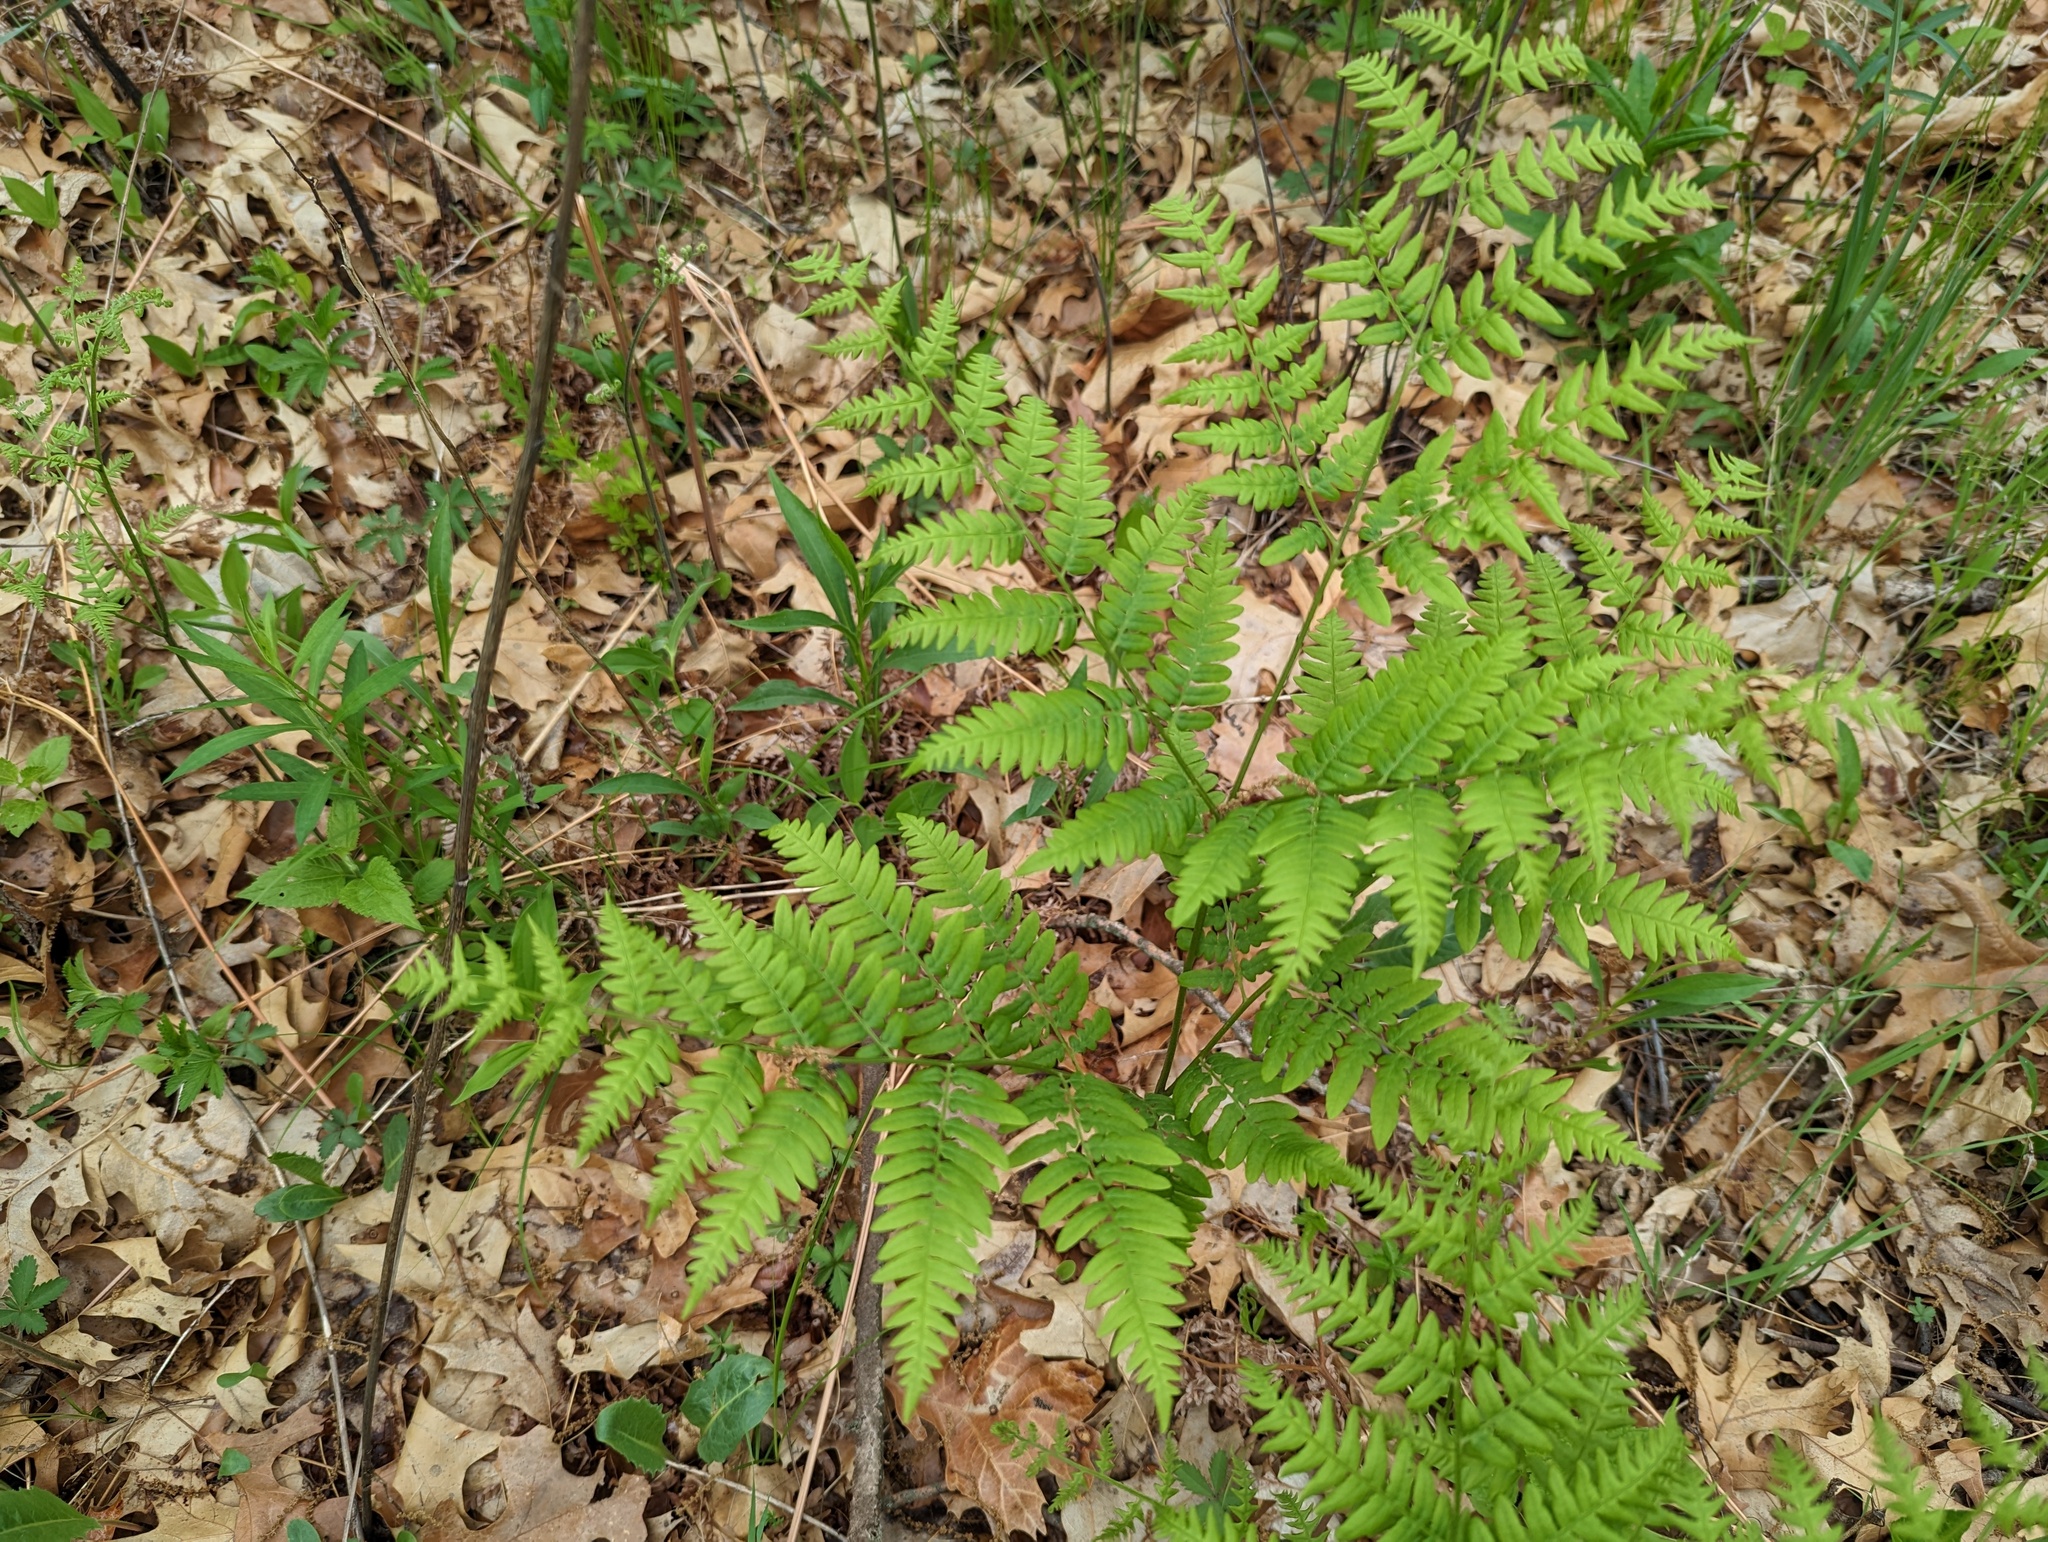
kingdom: Plantae
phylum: Tracheophyta
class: Polypodiopsida
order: Polypodiales
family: Dennstaedtiaceae
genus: Pteridium
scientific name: Pteridium aquilinum
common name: Bracken
